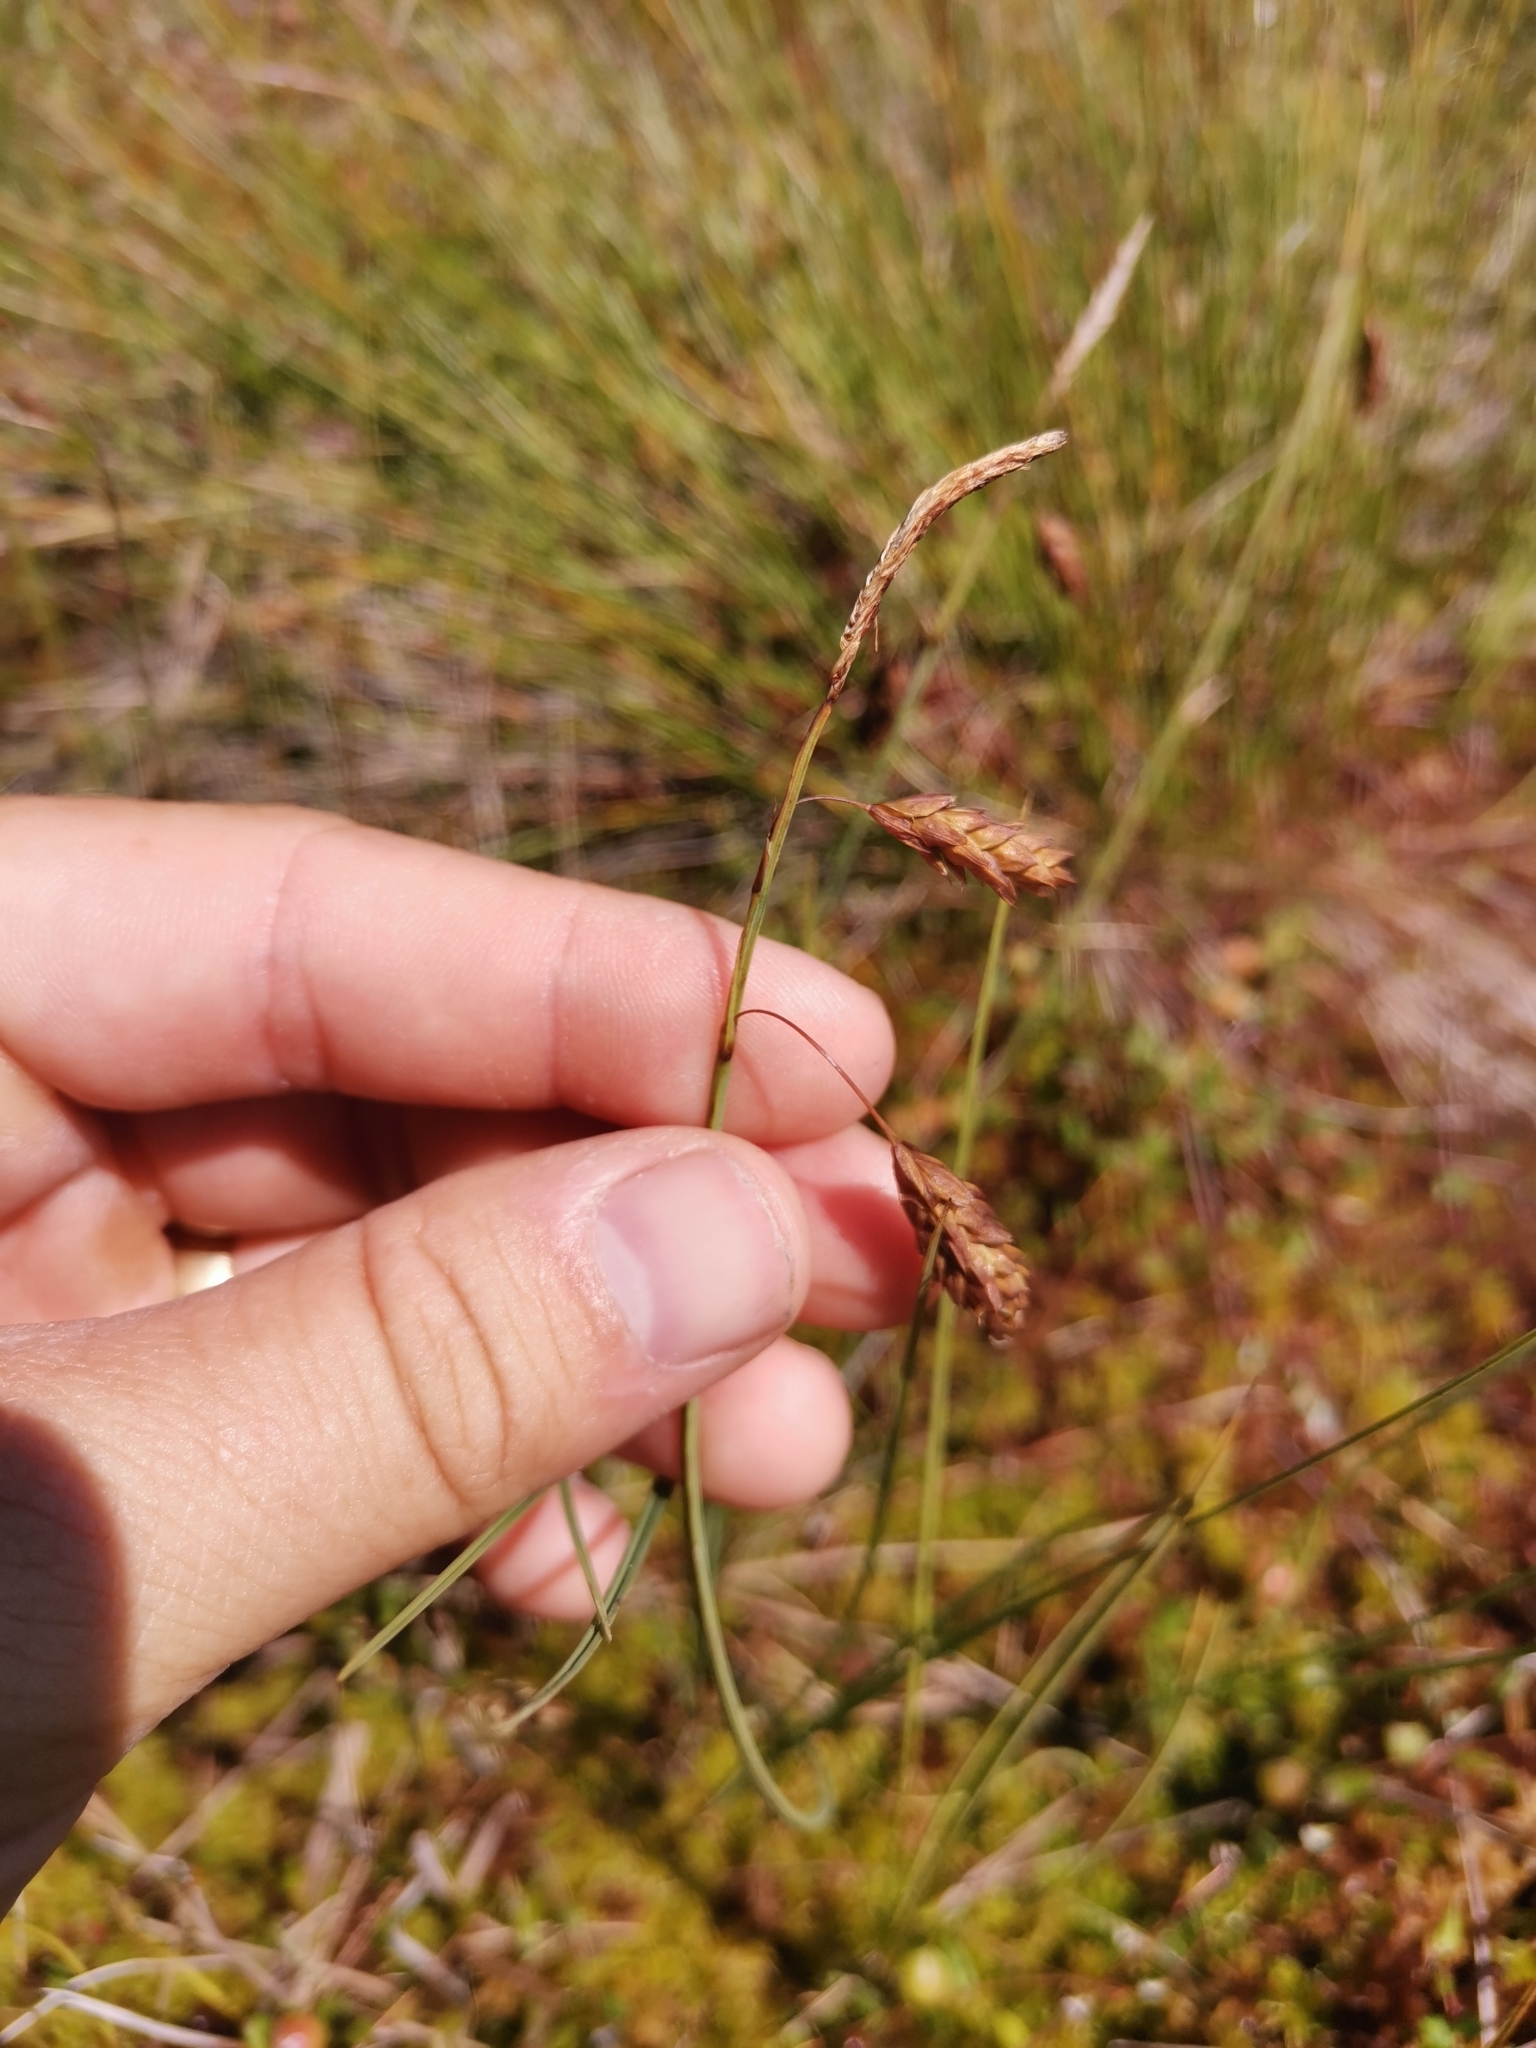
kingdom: Plantae
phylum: Tracheophyta
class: Liliopsida
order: Poales
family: Cyperaceae
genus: Carex
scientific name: Carex limosa
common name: Bog sedge
